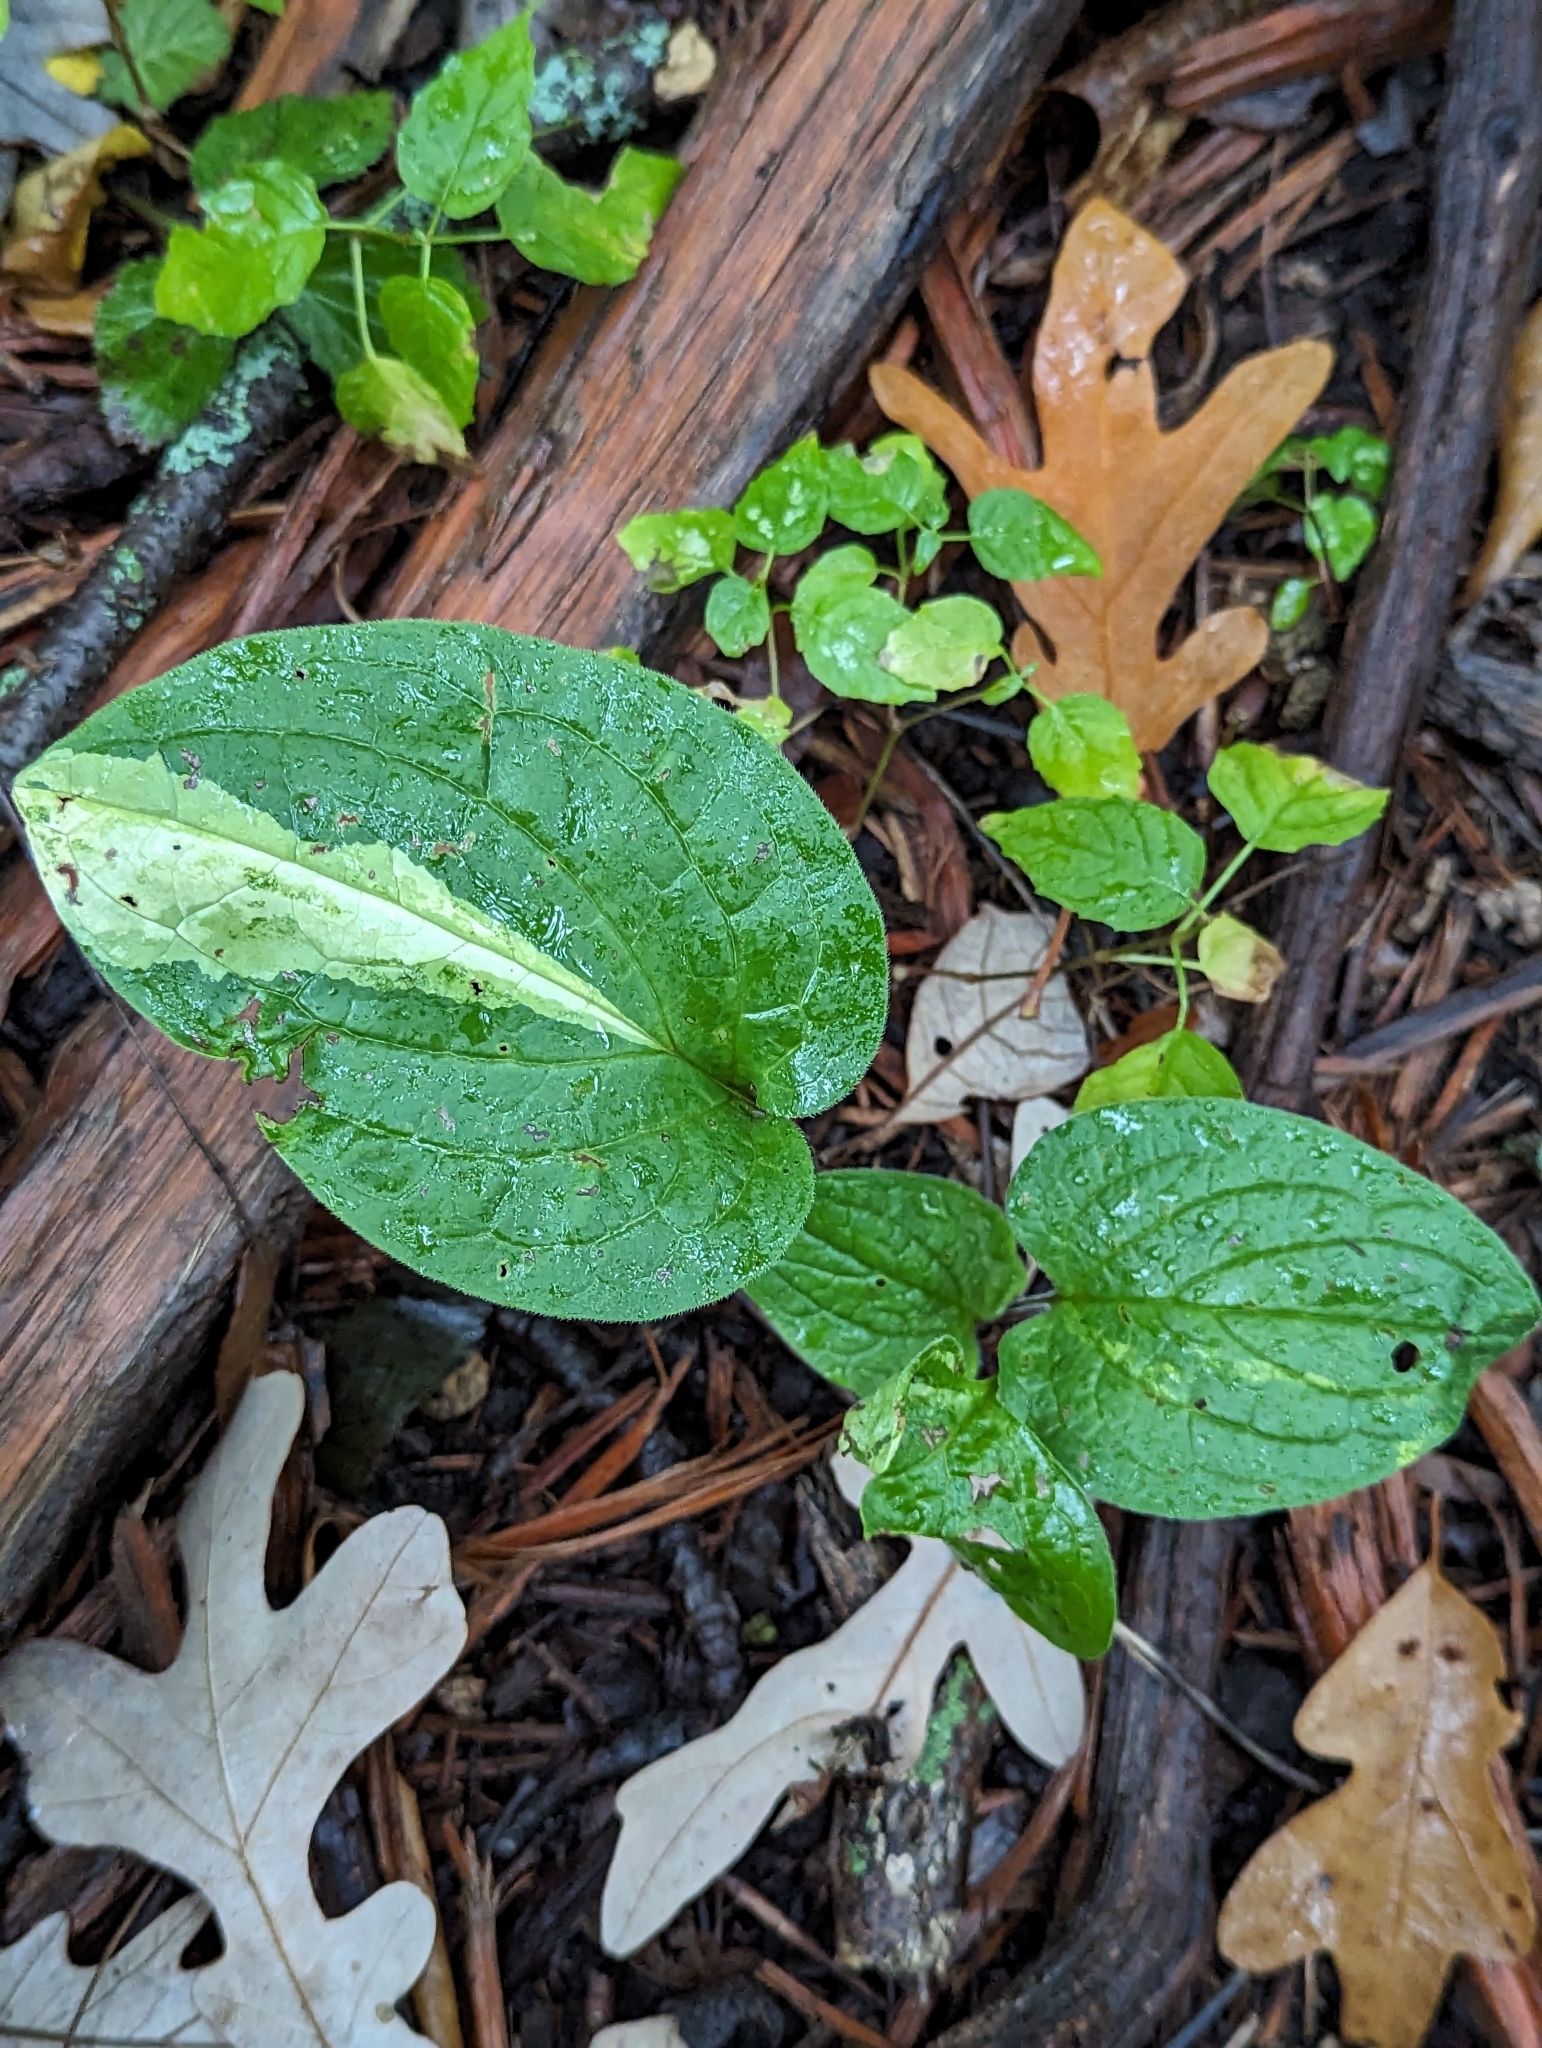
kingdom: Plantae
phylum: Tracheophyta
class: Magnoliopsida
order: Boraginales
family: Boraginaceae
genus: Hackelia
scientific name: Hackelia virginiana
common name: Beggar's-lice
